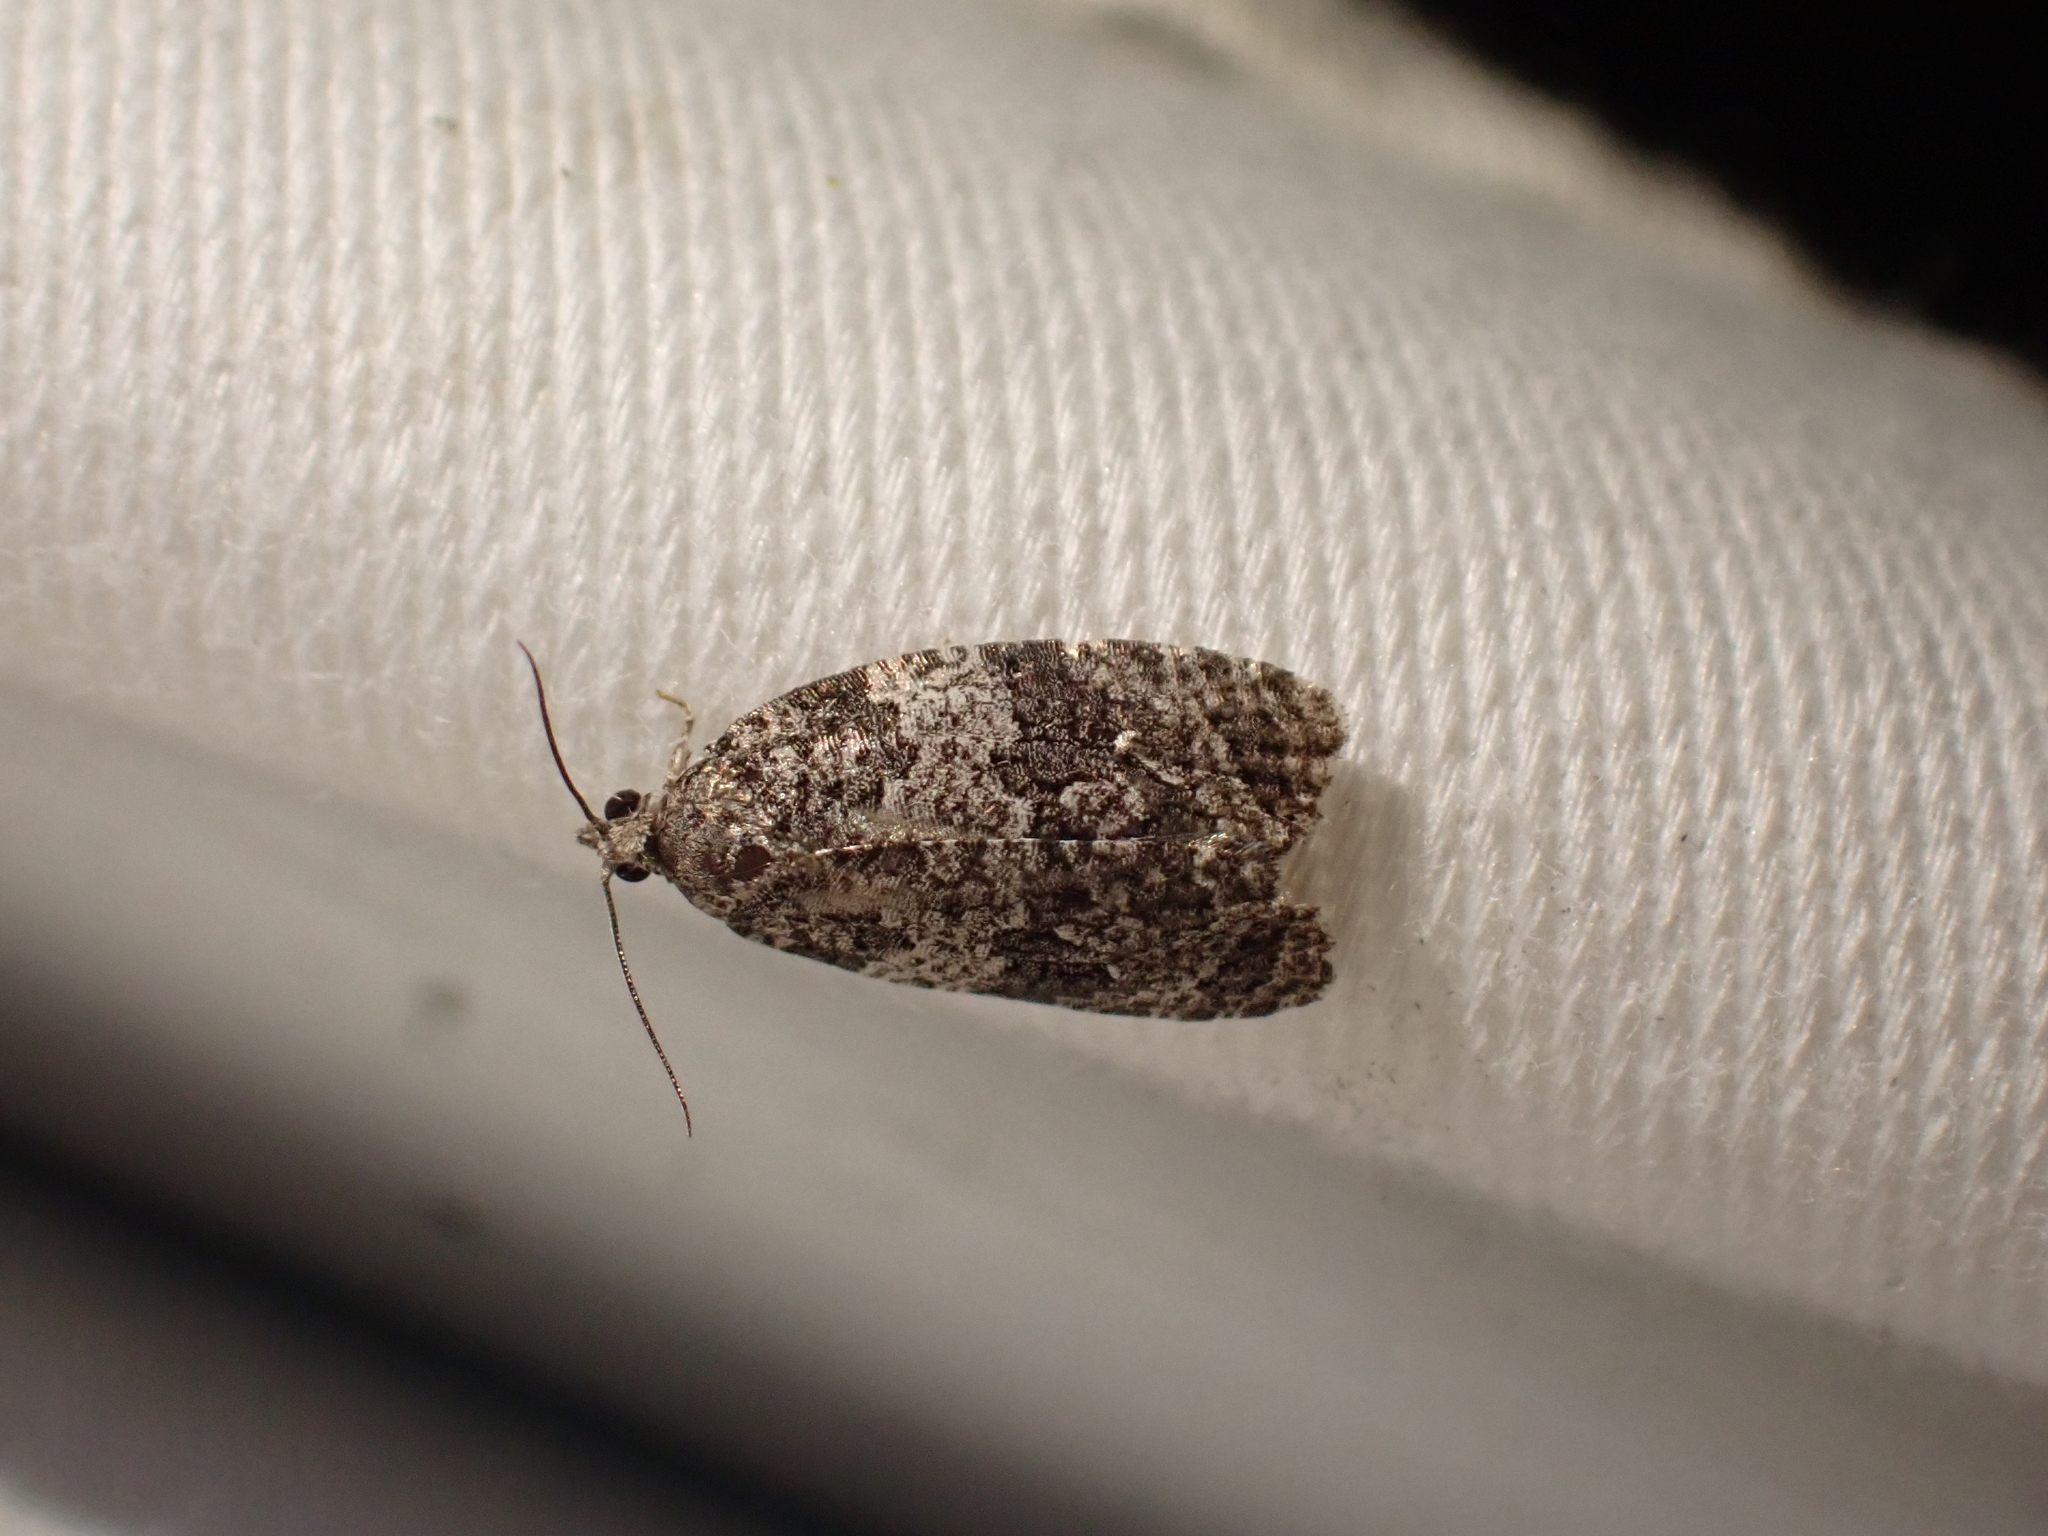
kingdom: Animalia
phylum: Arthropoda
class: Insecta
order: Lepidoptera
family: Tortricidae
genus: Apotomis
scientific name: Apotomis removana
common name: Green aspen leafroller
